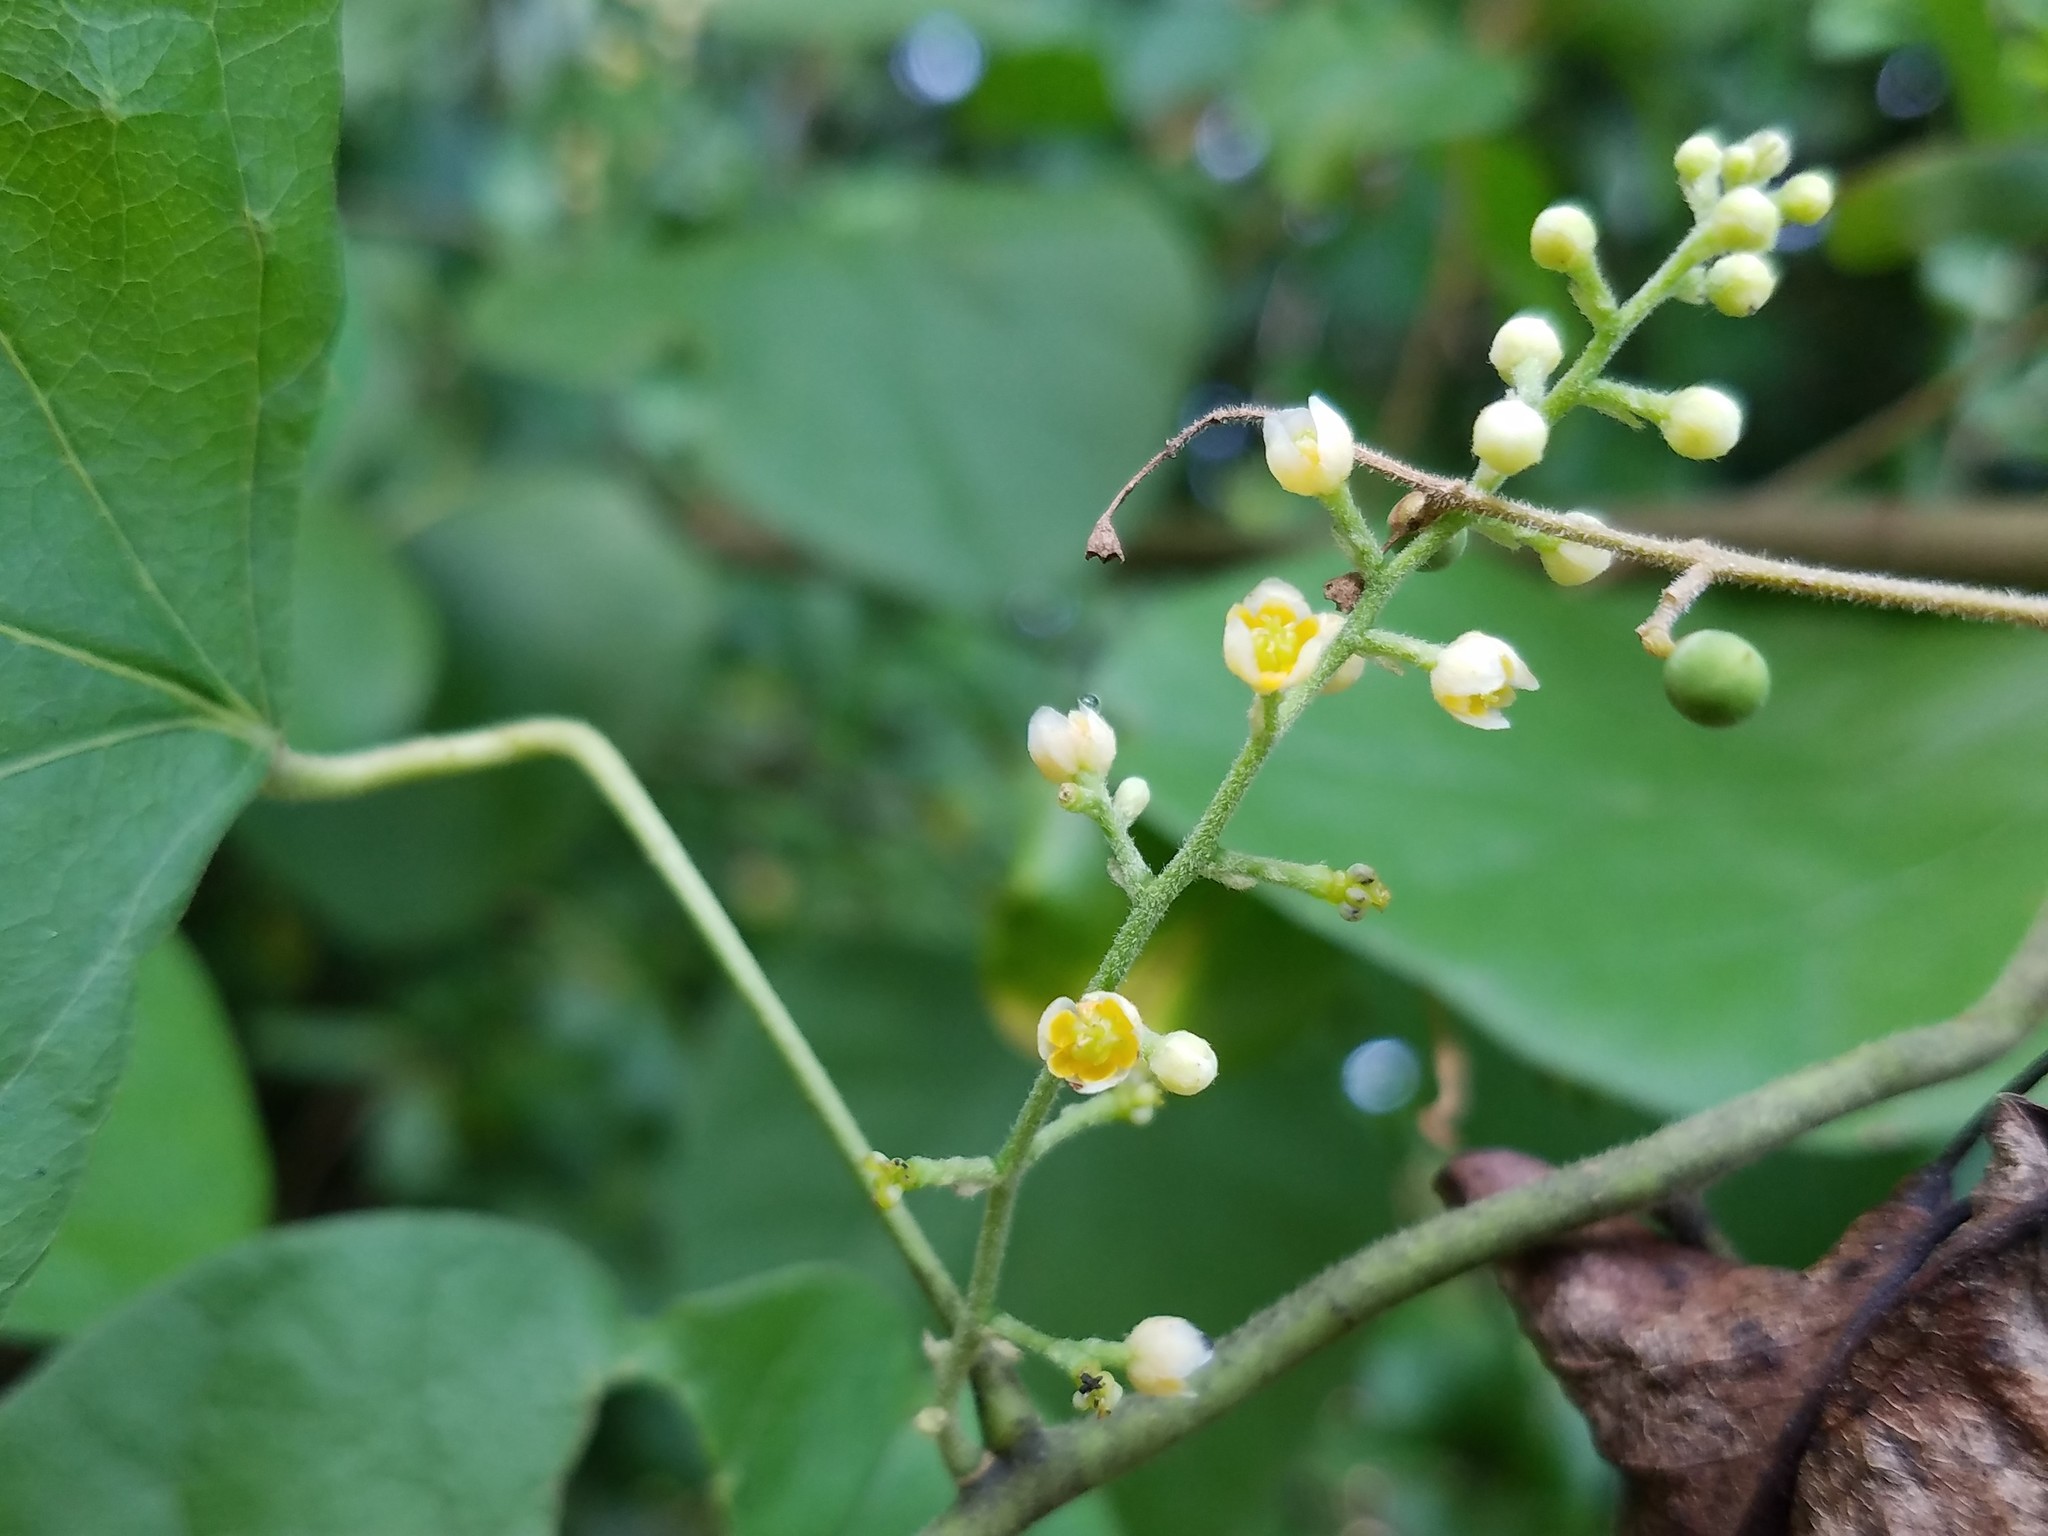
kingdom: Plantae
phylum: Tracheophyta
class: Magnoliopsida
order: Ranunculales
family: Menispermaceae
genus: Cocculus
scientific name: Cocculus carolinus
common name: Carolina moonseed
